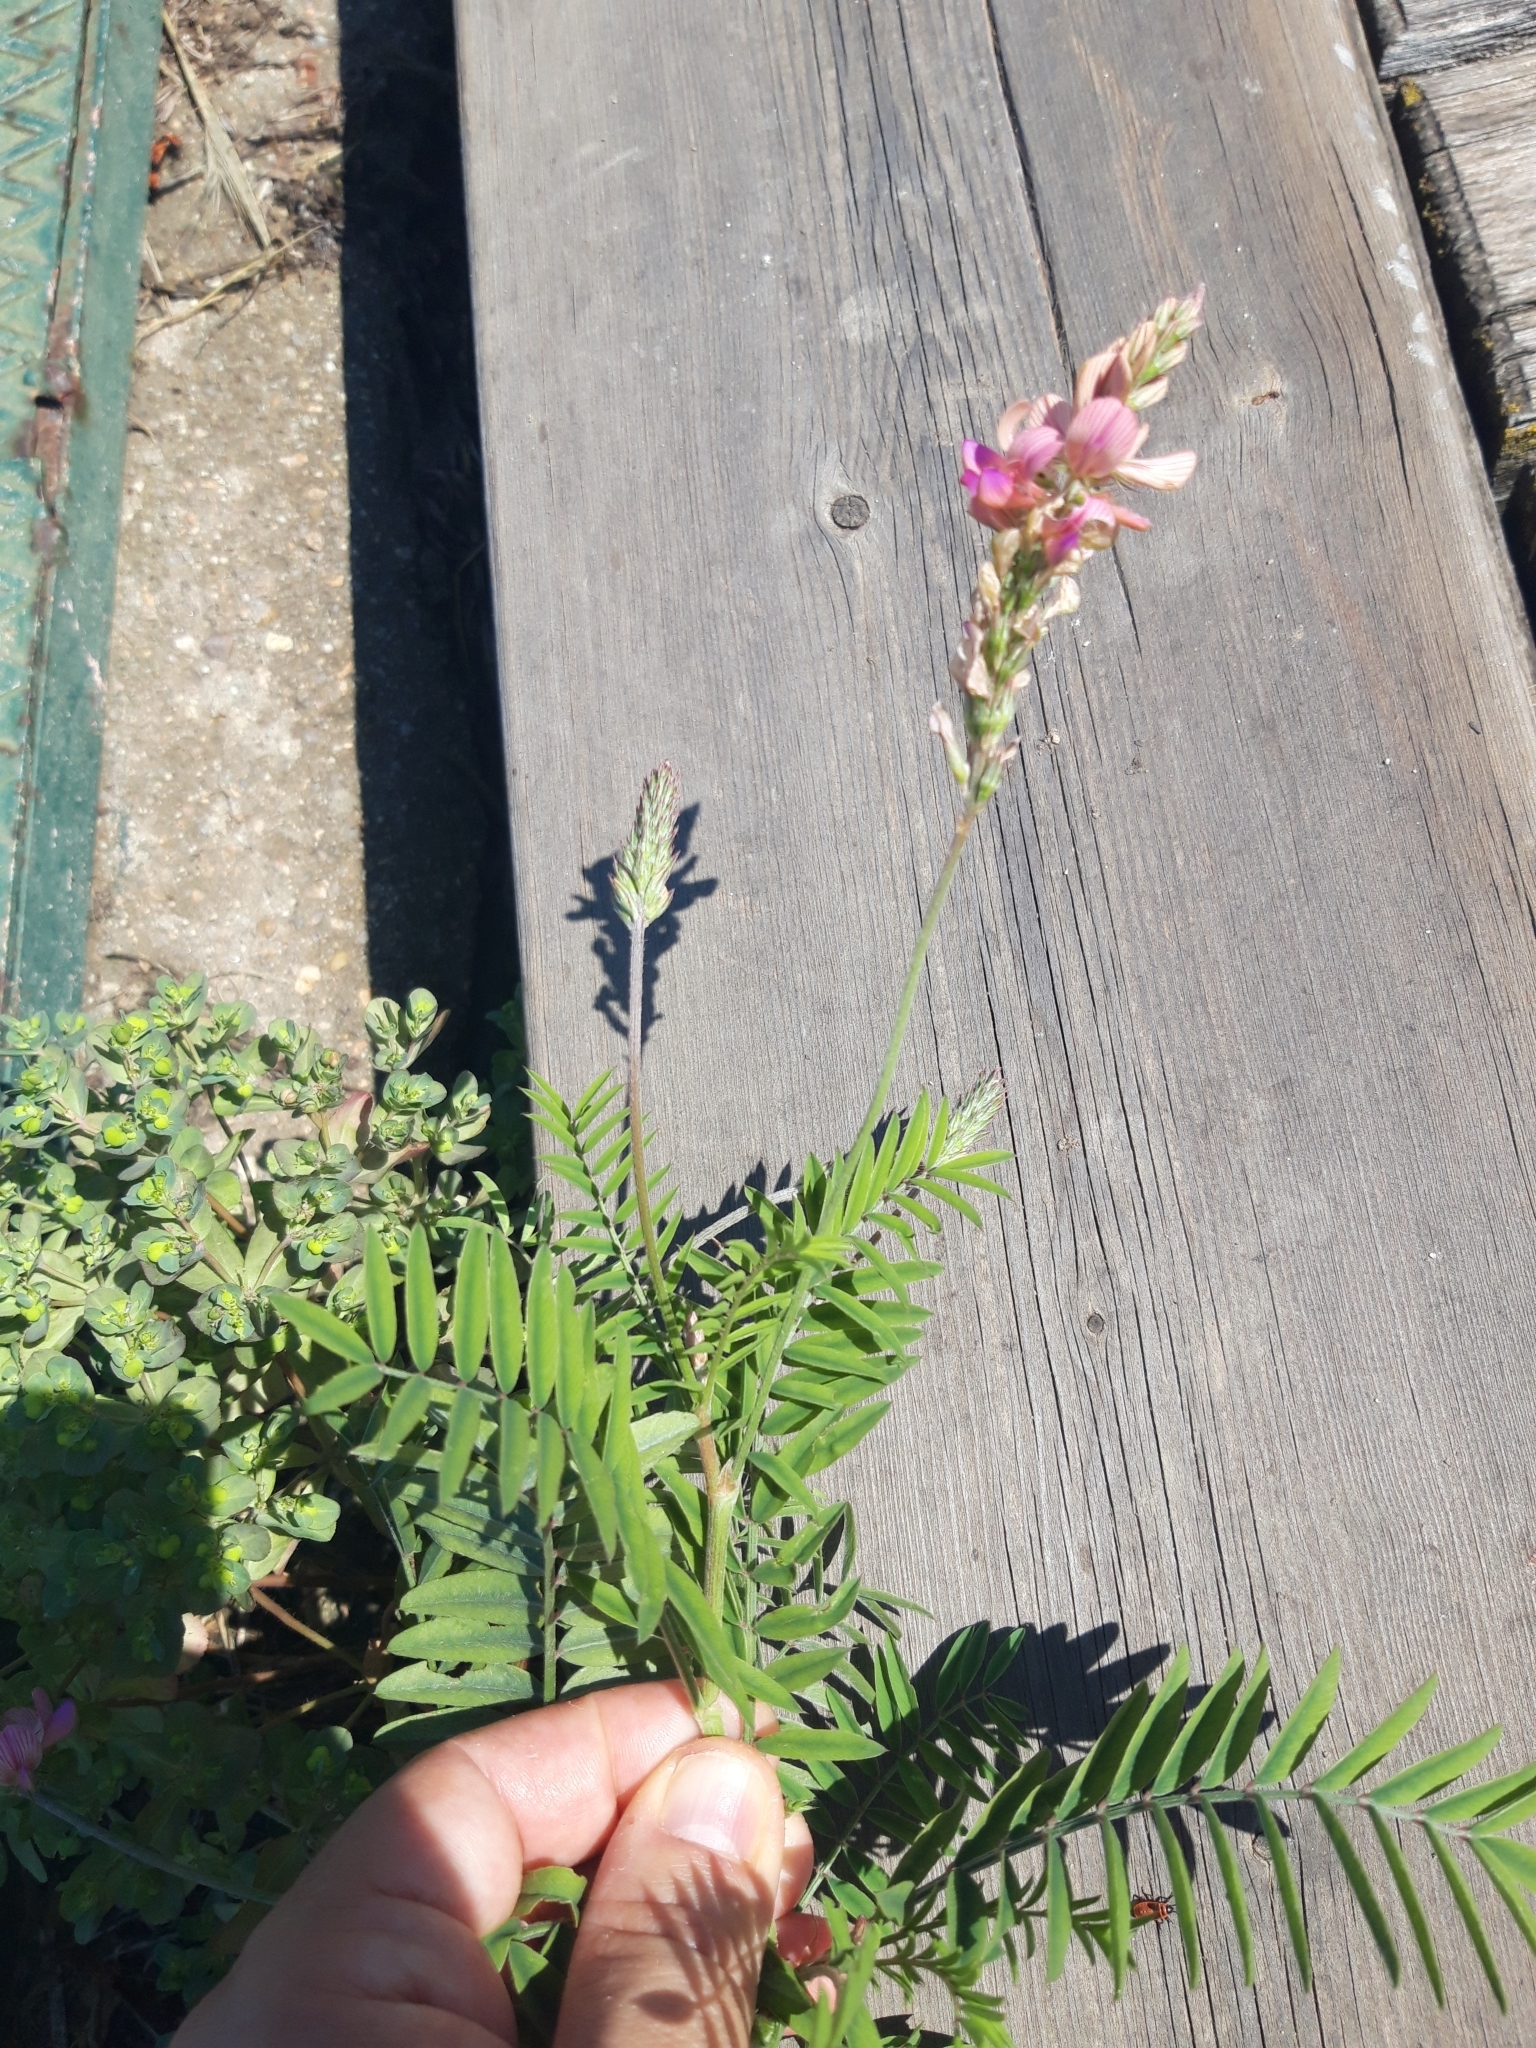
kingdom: Plantae
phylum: Tracheophyta
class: Magnoliopsida
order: Fabales
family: Fabaceae
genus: Onobrychis
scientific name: Onobrychis viciifolia
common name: Sainfoin
